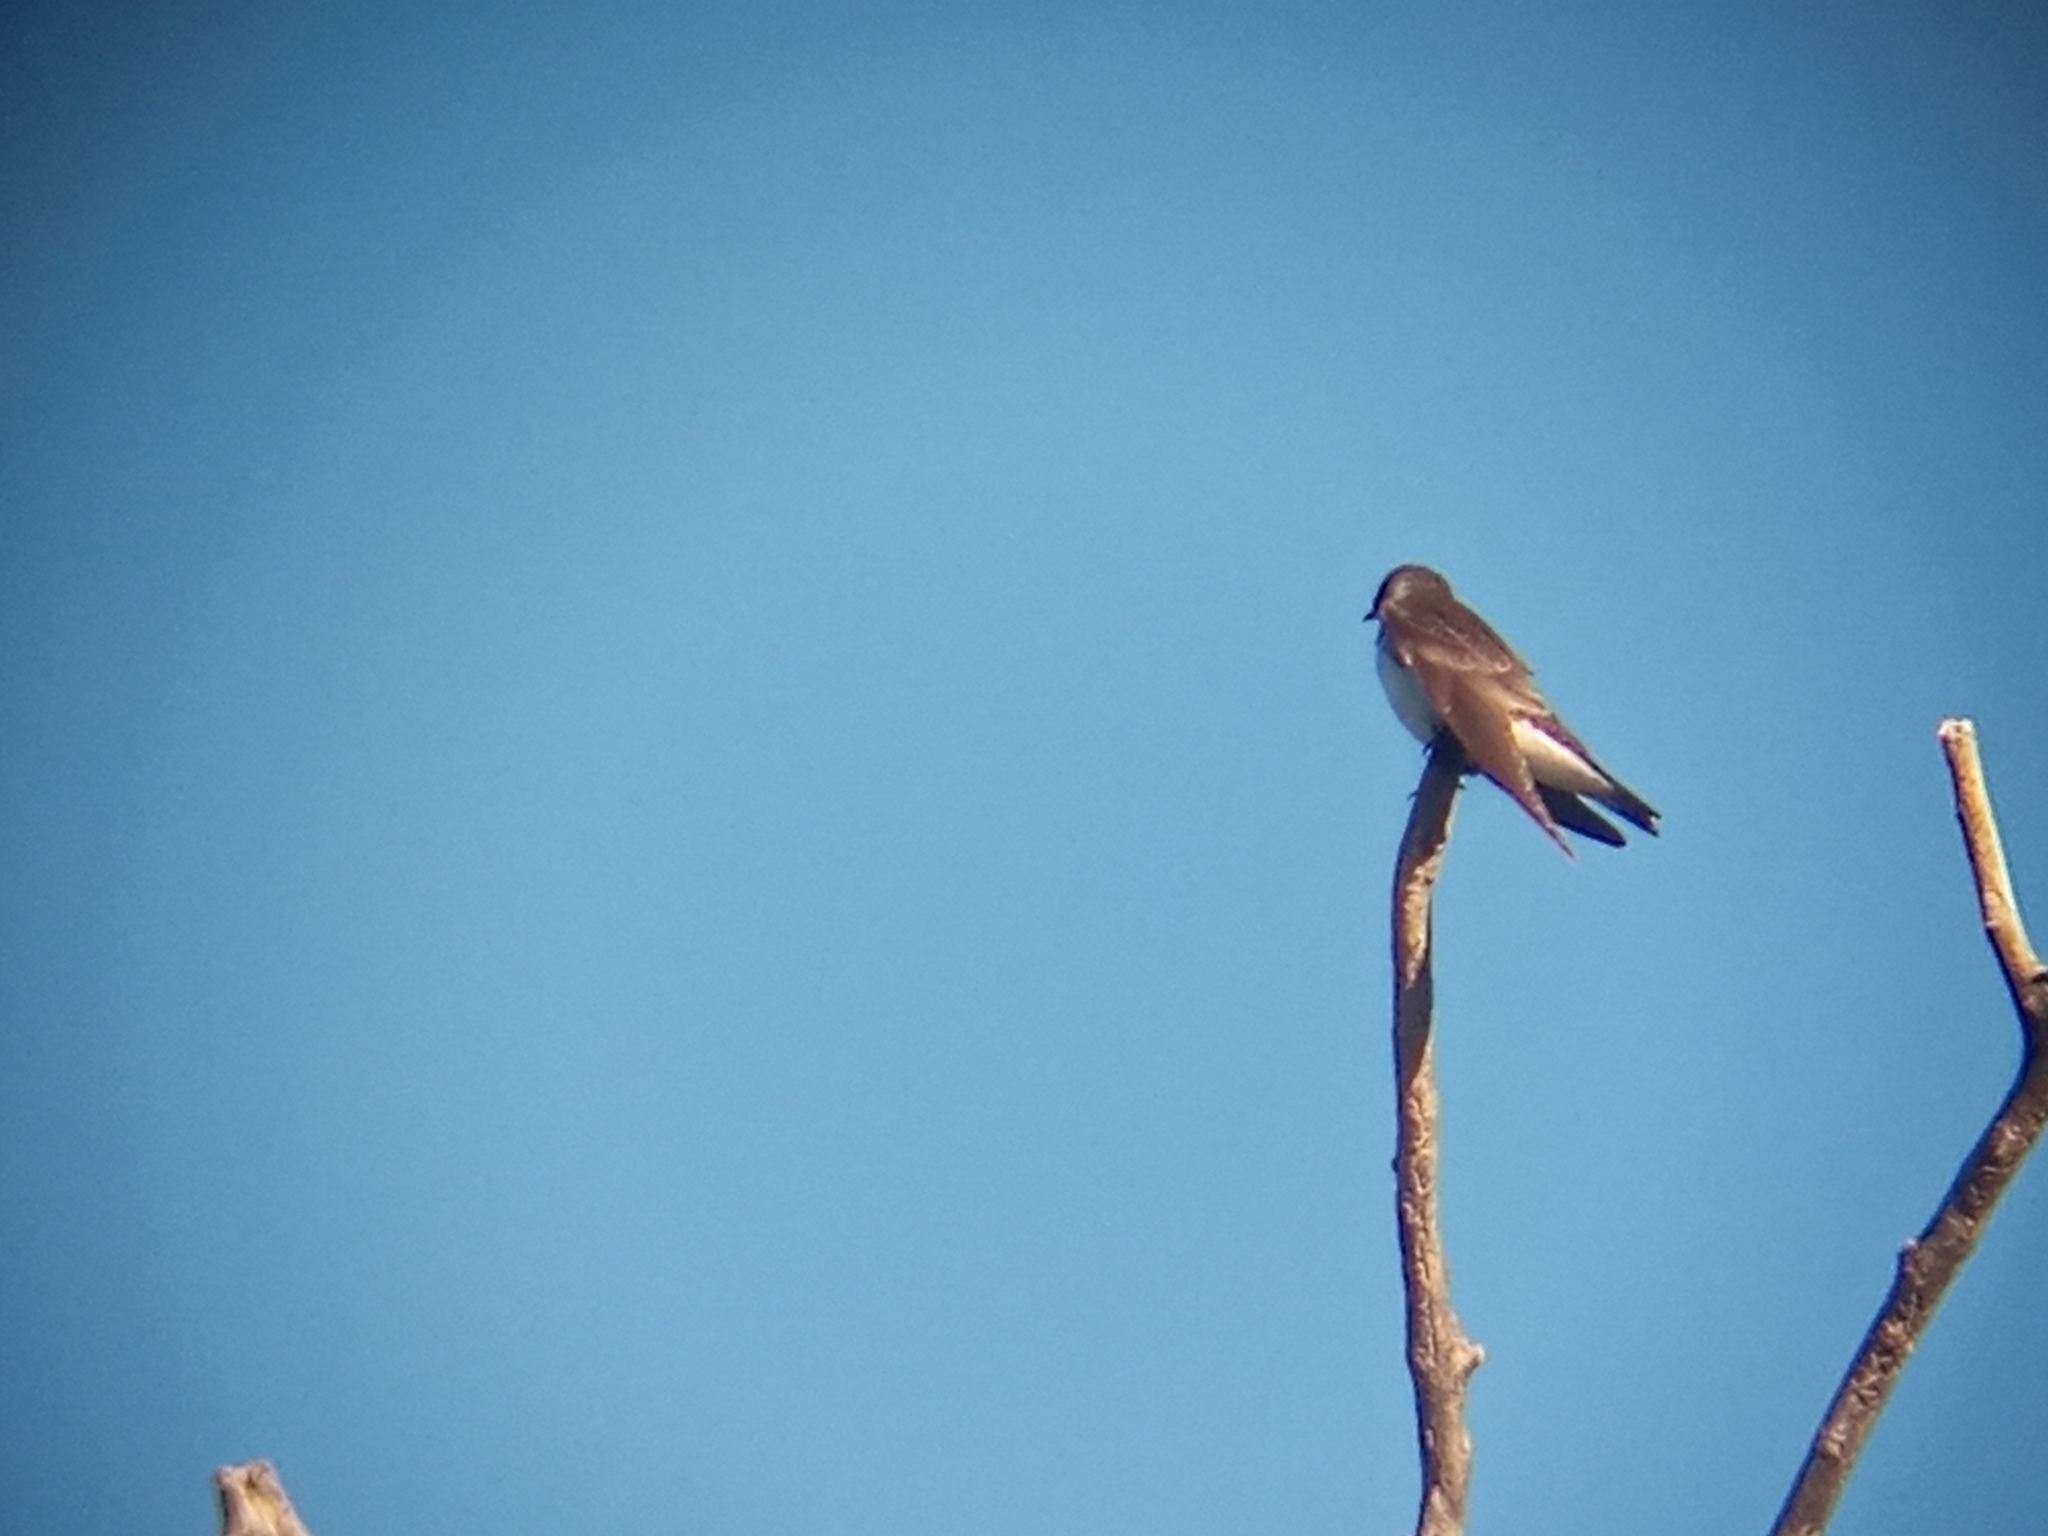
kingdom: Animalia
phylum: Chordata
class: Aves
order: Passeriformes
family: Hirundinidae
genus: Progne
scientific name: Progne tapera
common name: Brown-chested martin
